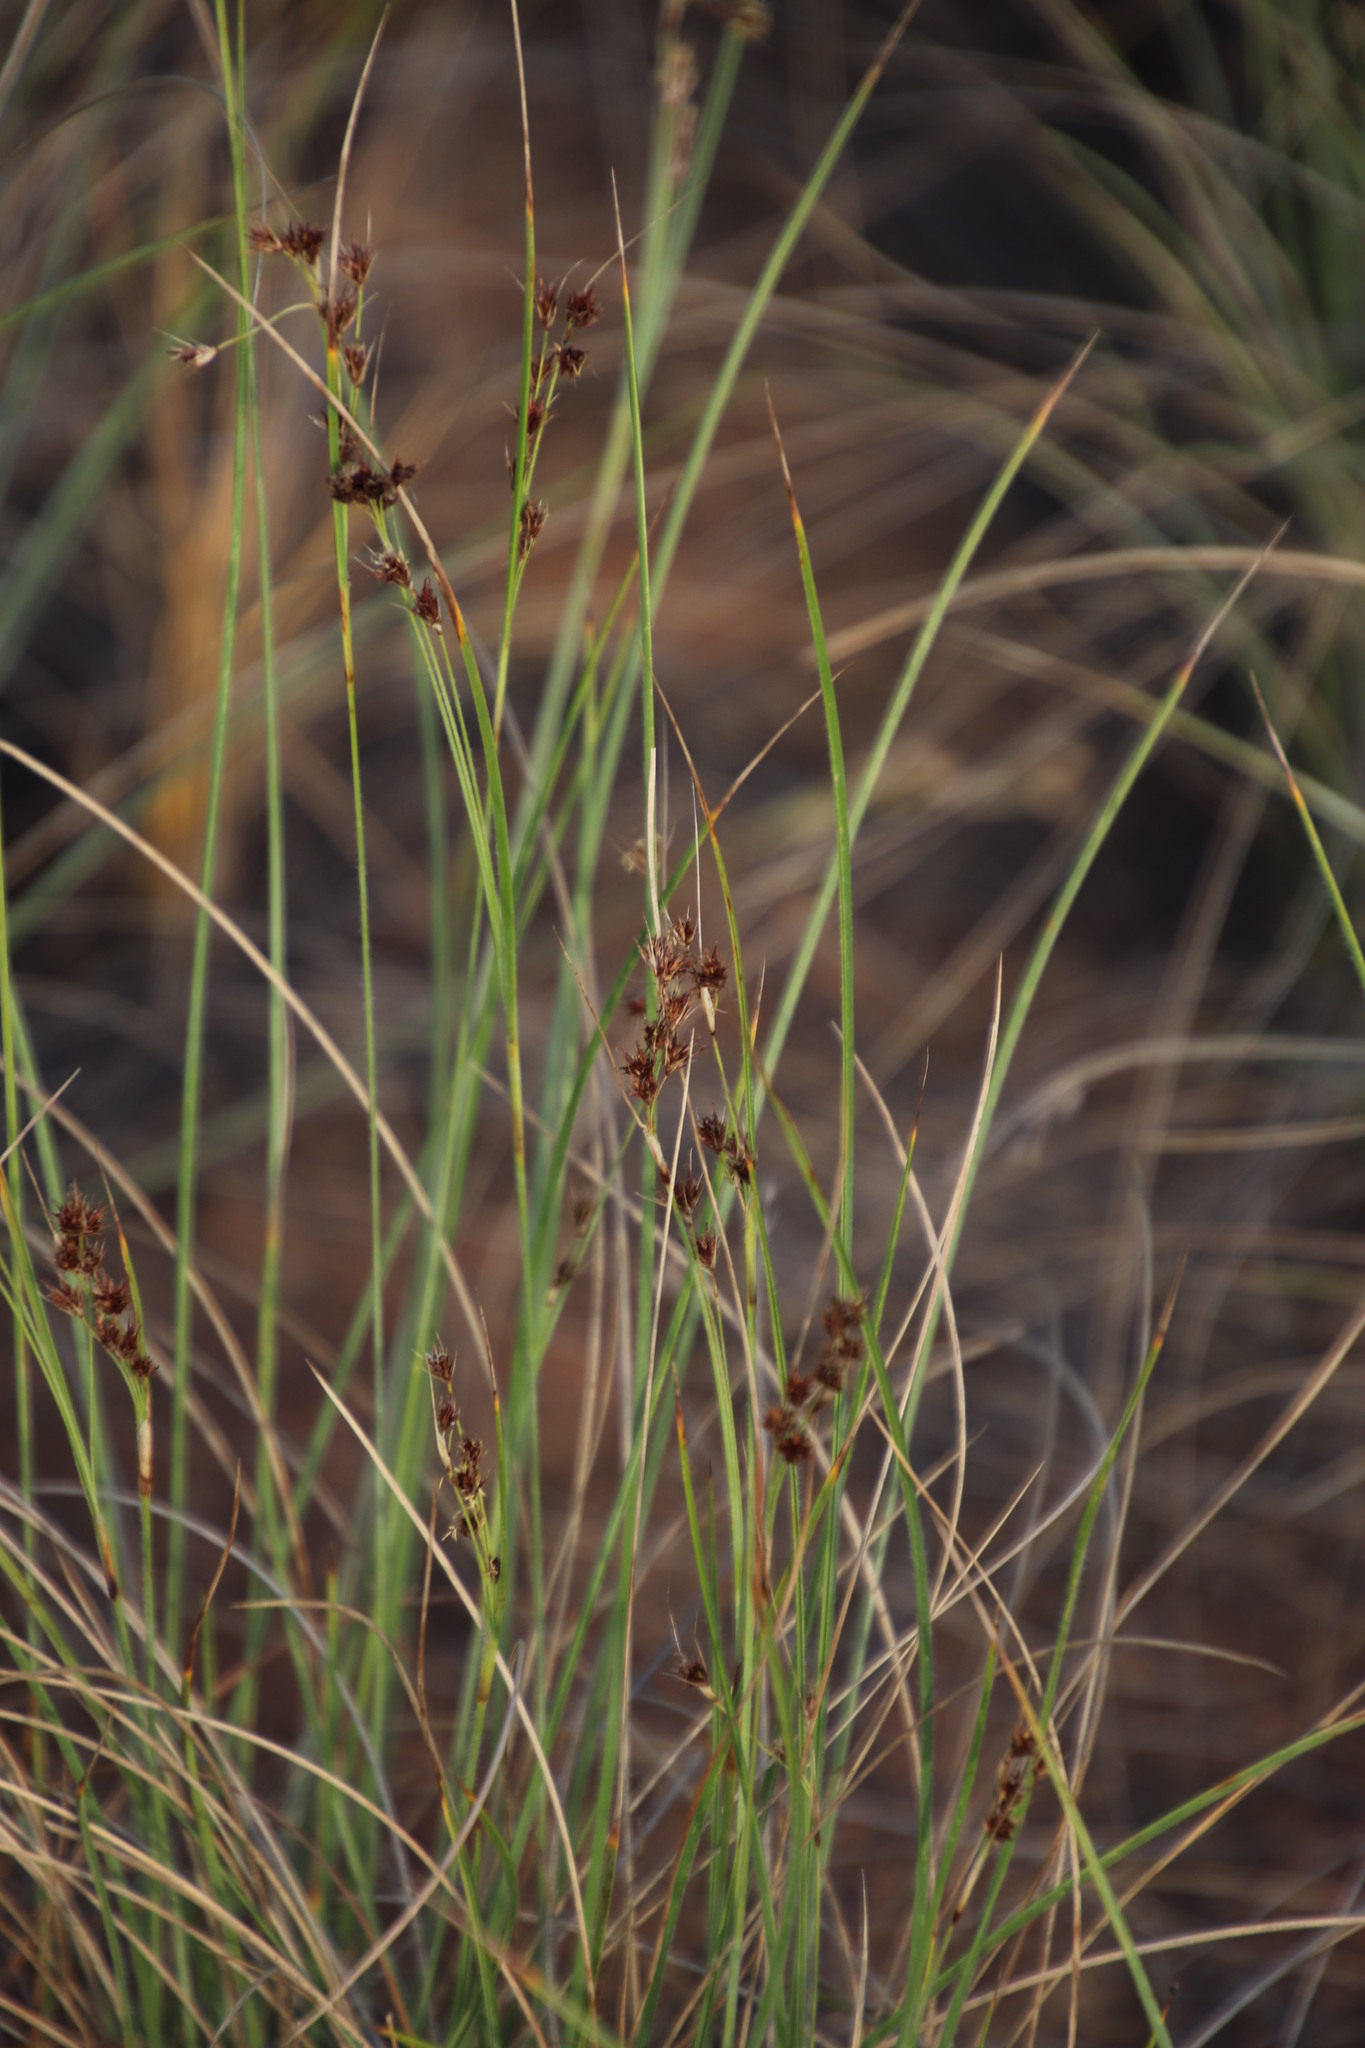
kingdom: Plantae
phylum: Tracheophyta
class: Liliopsida
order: Poales
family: Cyperaceae
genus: Coleochloa
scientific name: Coleochloa setifera
